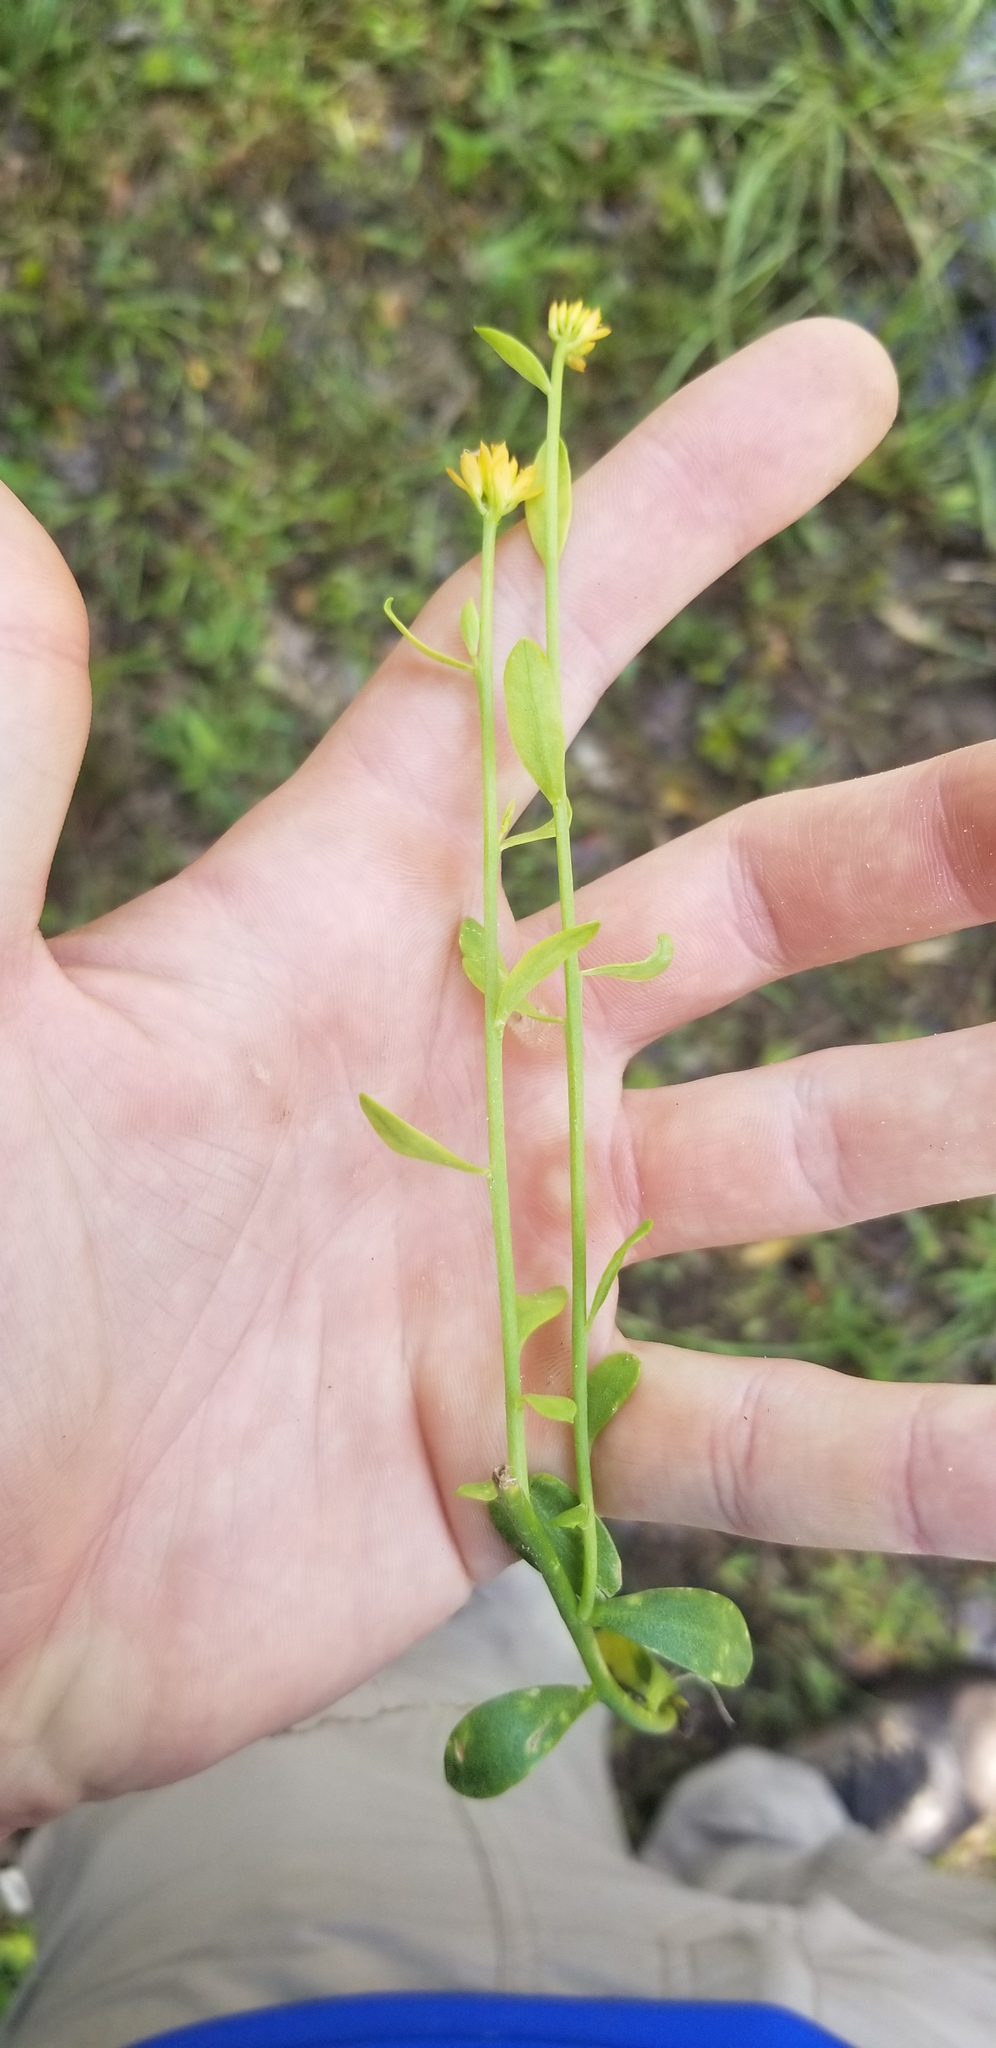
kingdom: Plantae
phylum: Tracheophyta
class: Magnoliopsida
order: Fabales
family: Polygalaceae
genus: Polygala
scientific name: Polygala lutea
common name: Orange milkwort
